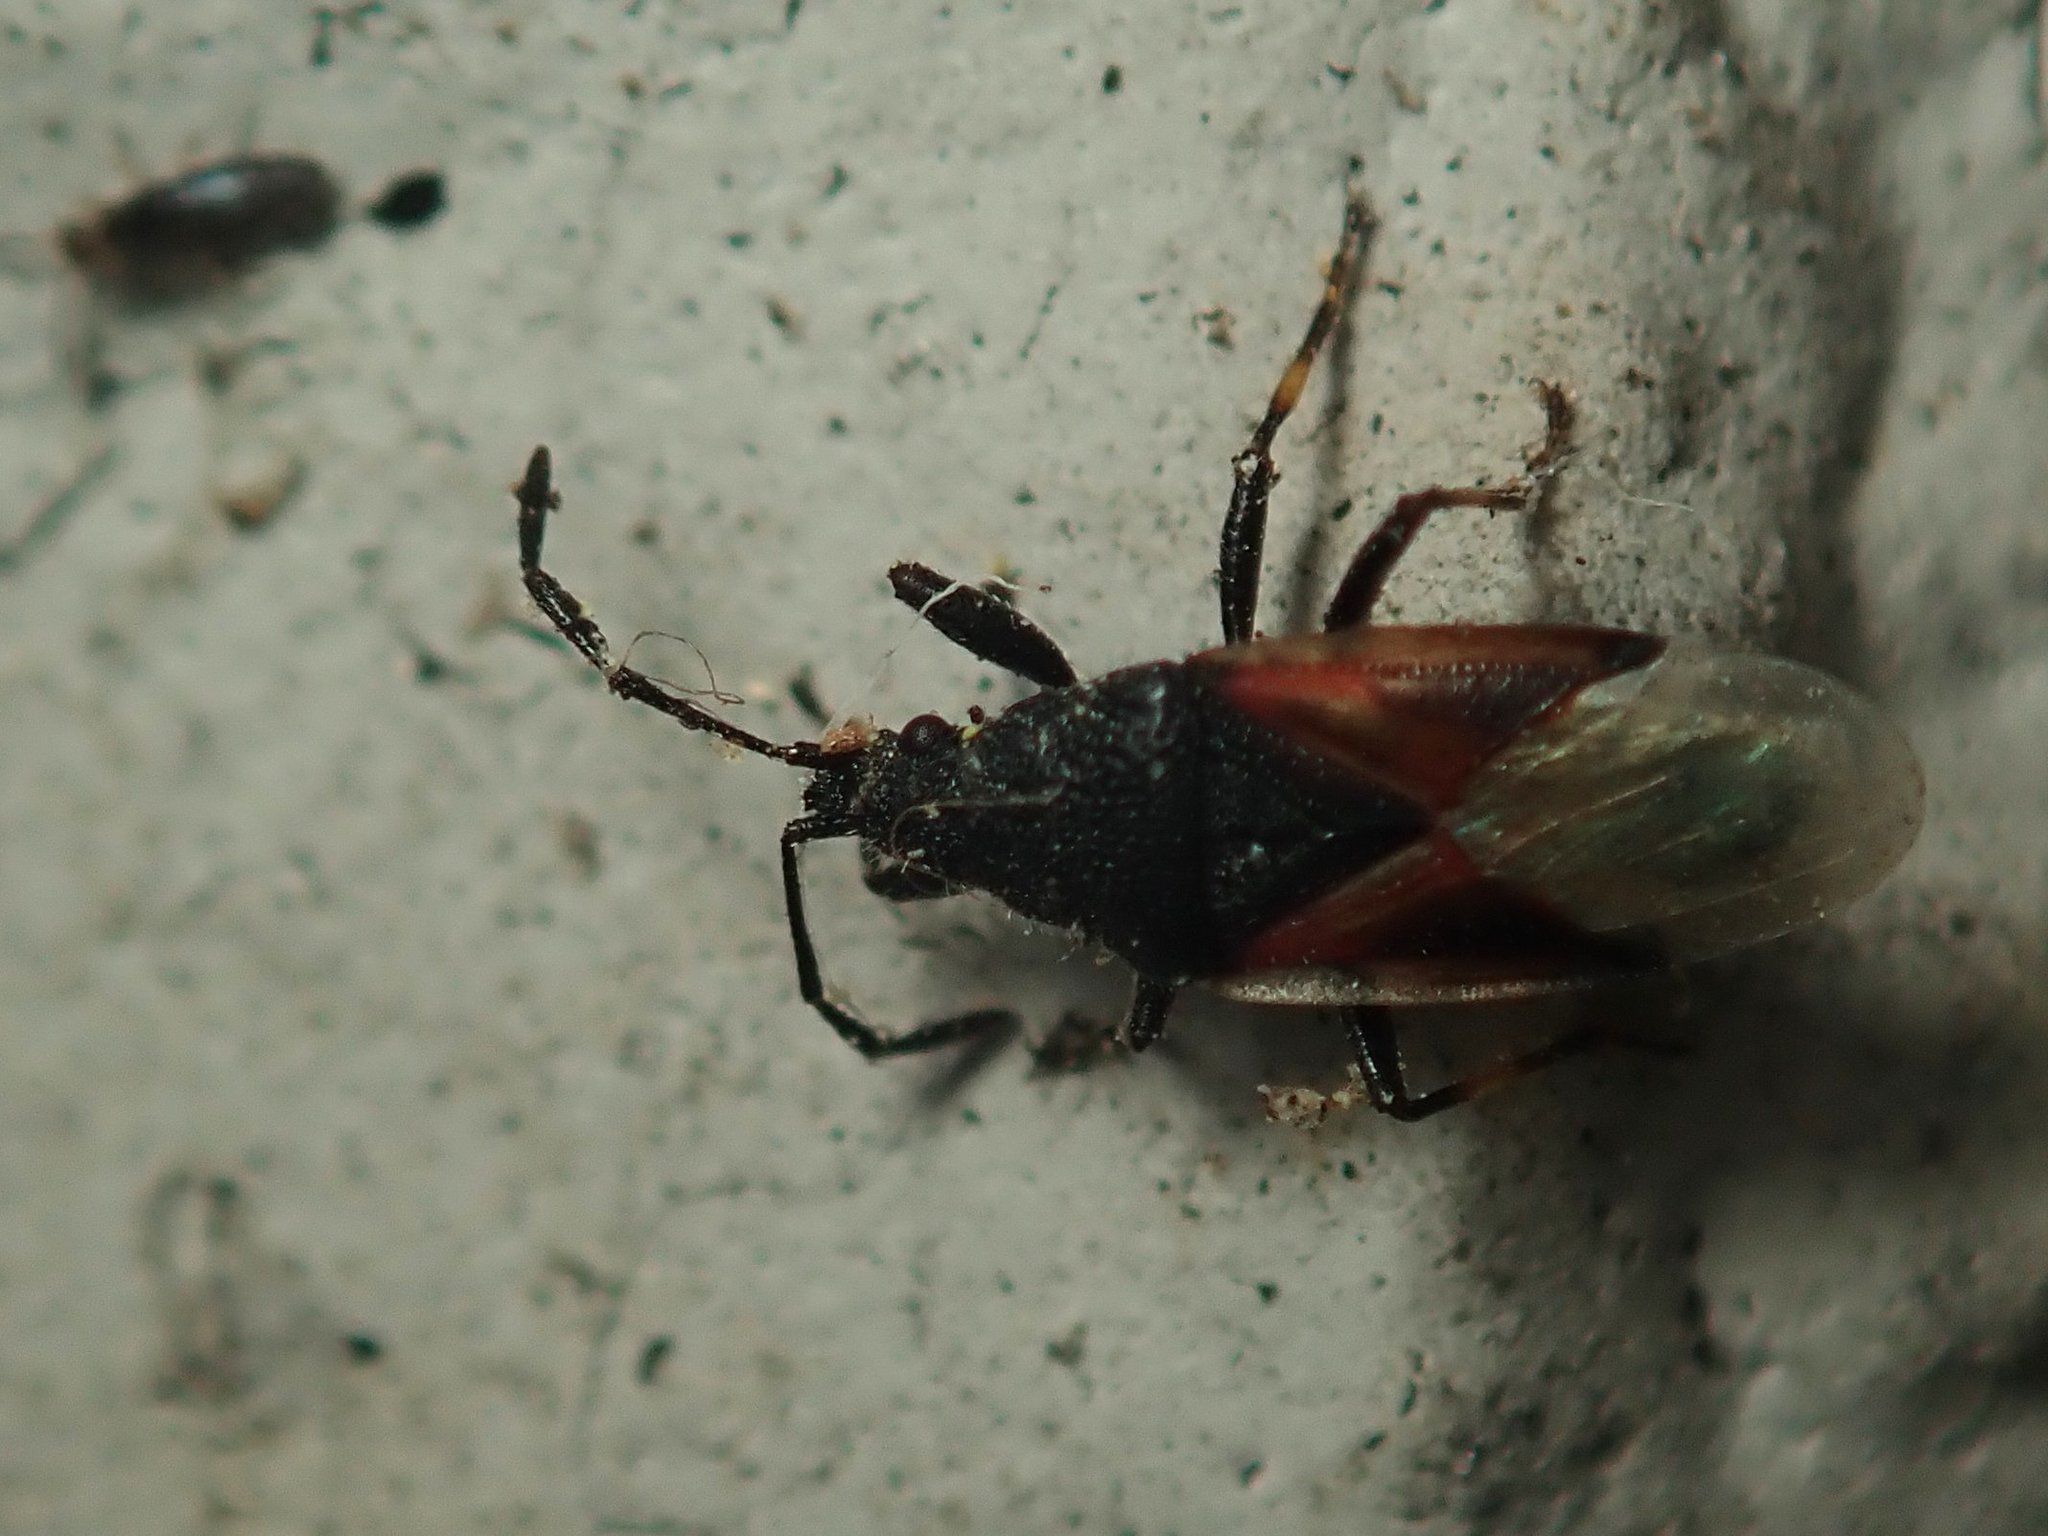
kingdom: Animalia
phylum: Arthropoda
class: Insecta
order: Hemiptera
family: Oxycarenidae
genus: Oxycarenus
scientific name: Oxycarenus lavaterae
